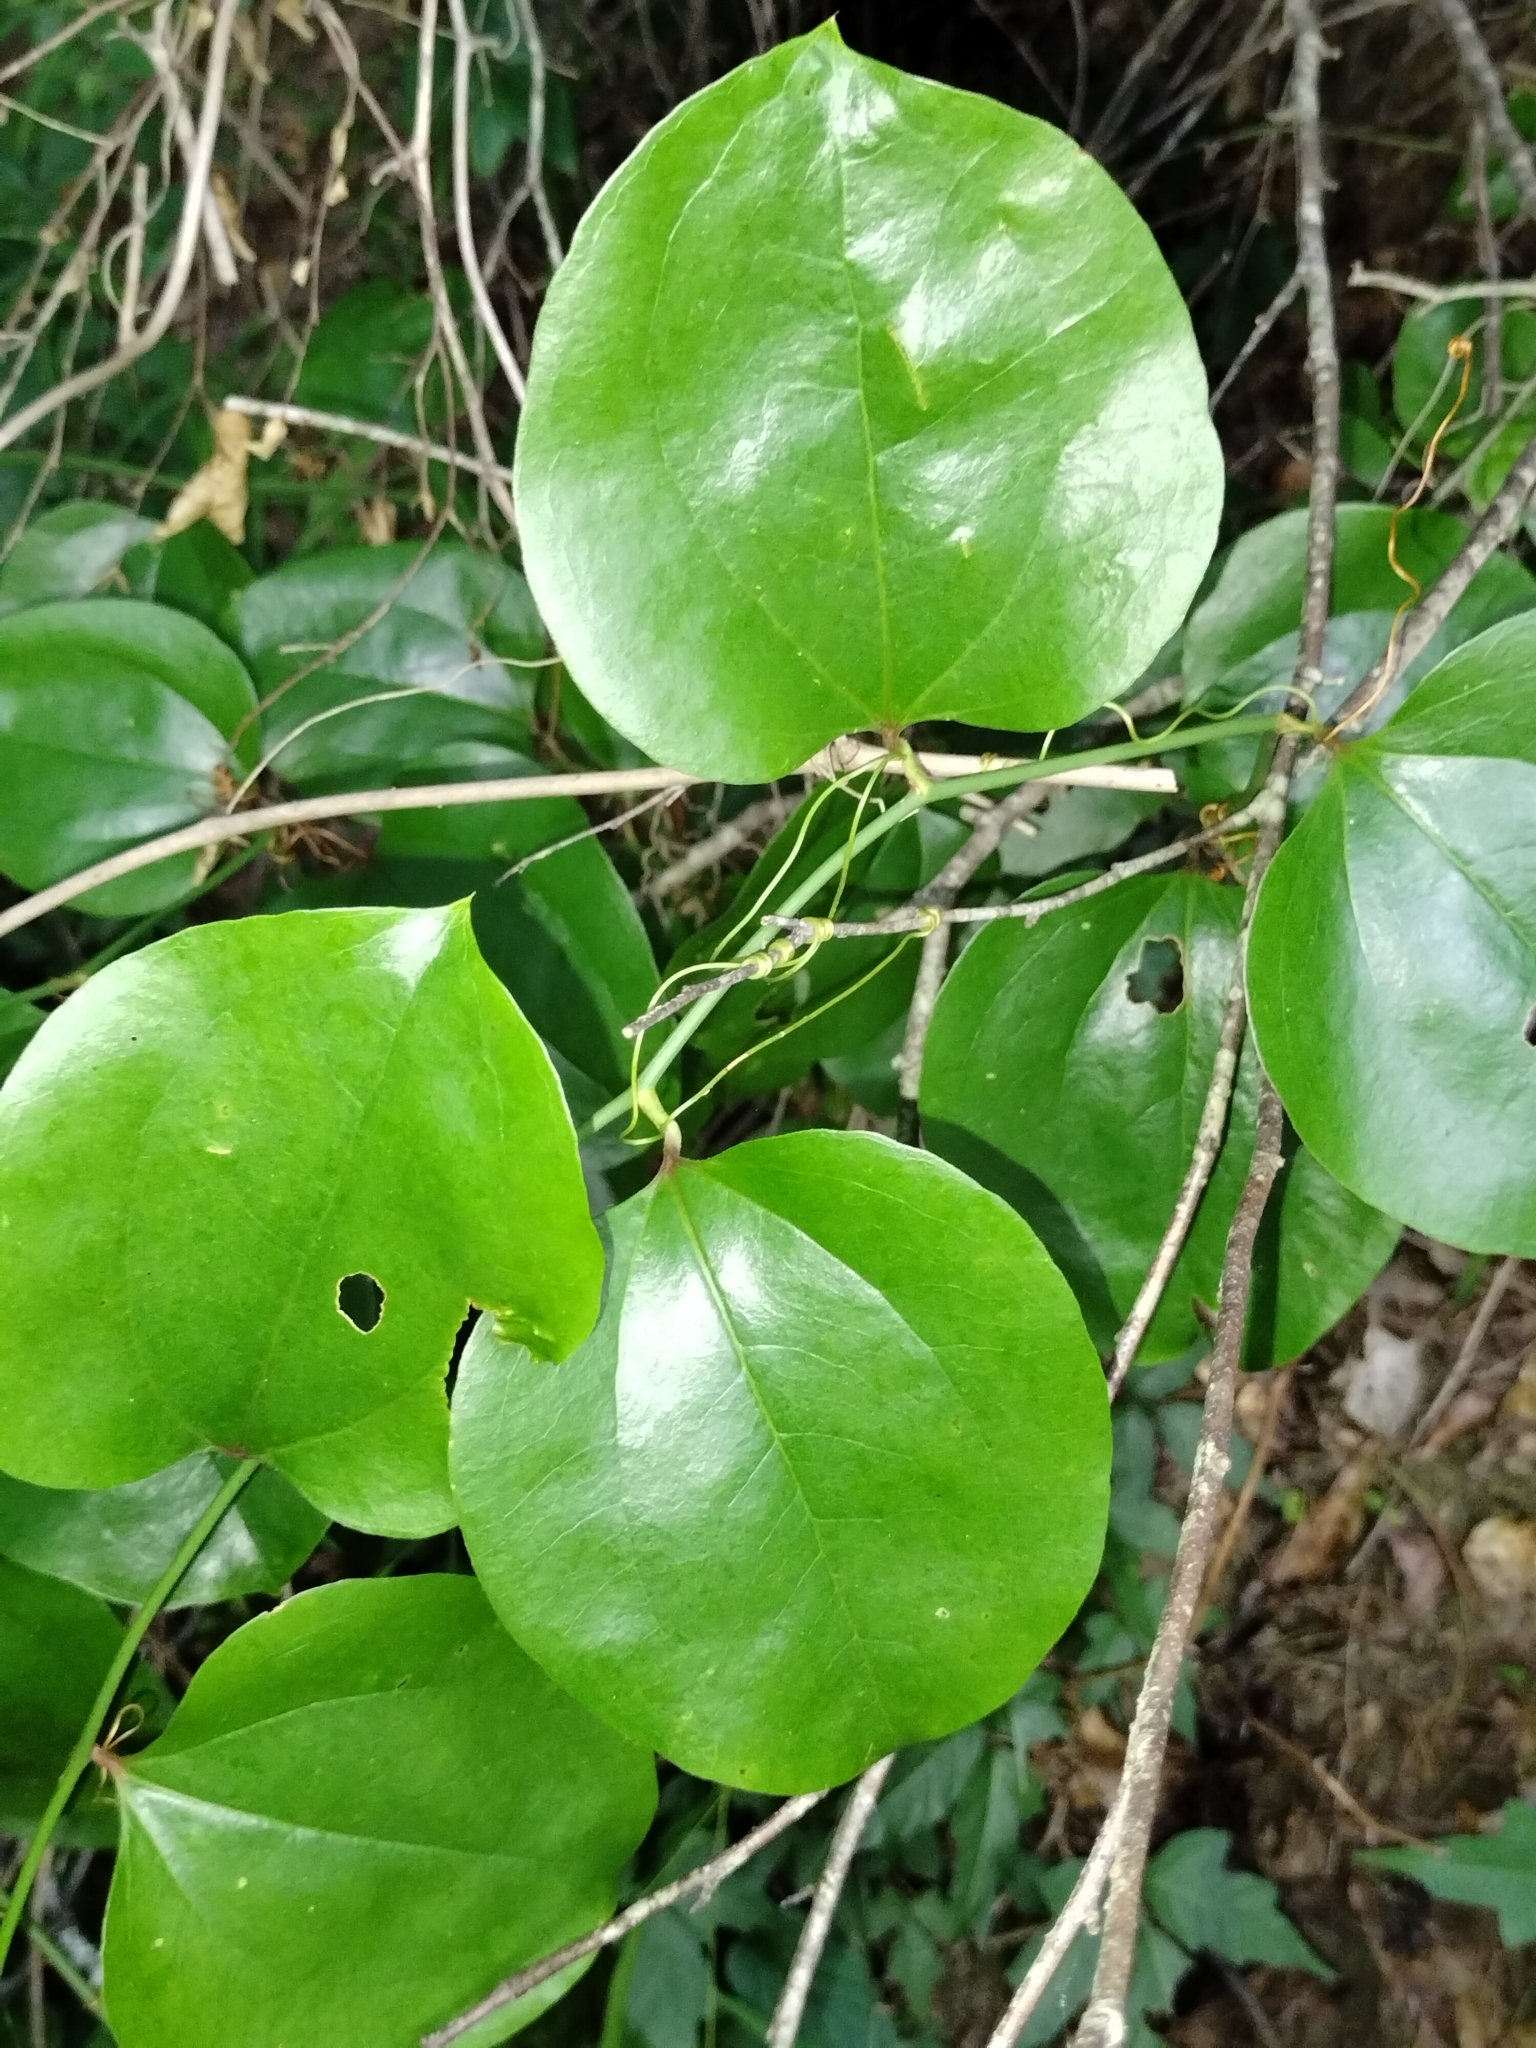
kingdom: Plantae
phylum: Tracheophyta
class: Liliopsida
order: Liliales
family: Smilacaceae
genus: Smilax
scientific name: Smilax rotundifolia
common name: Bullbriar
